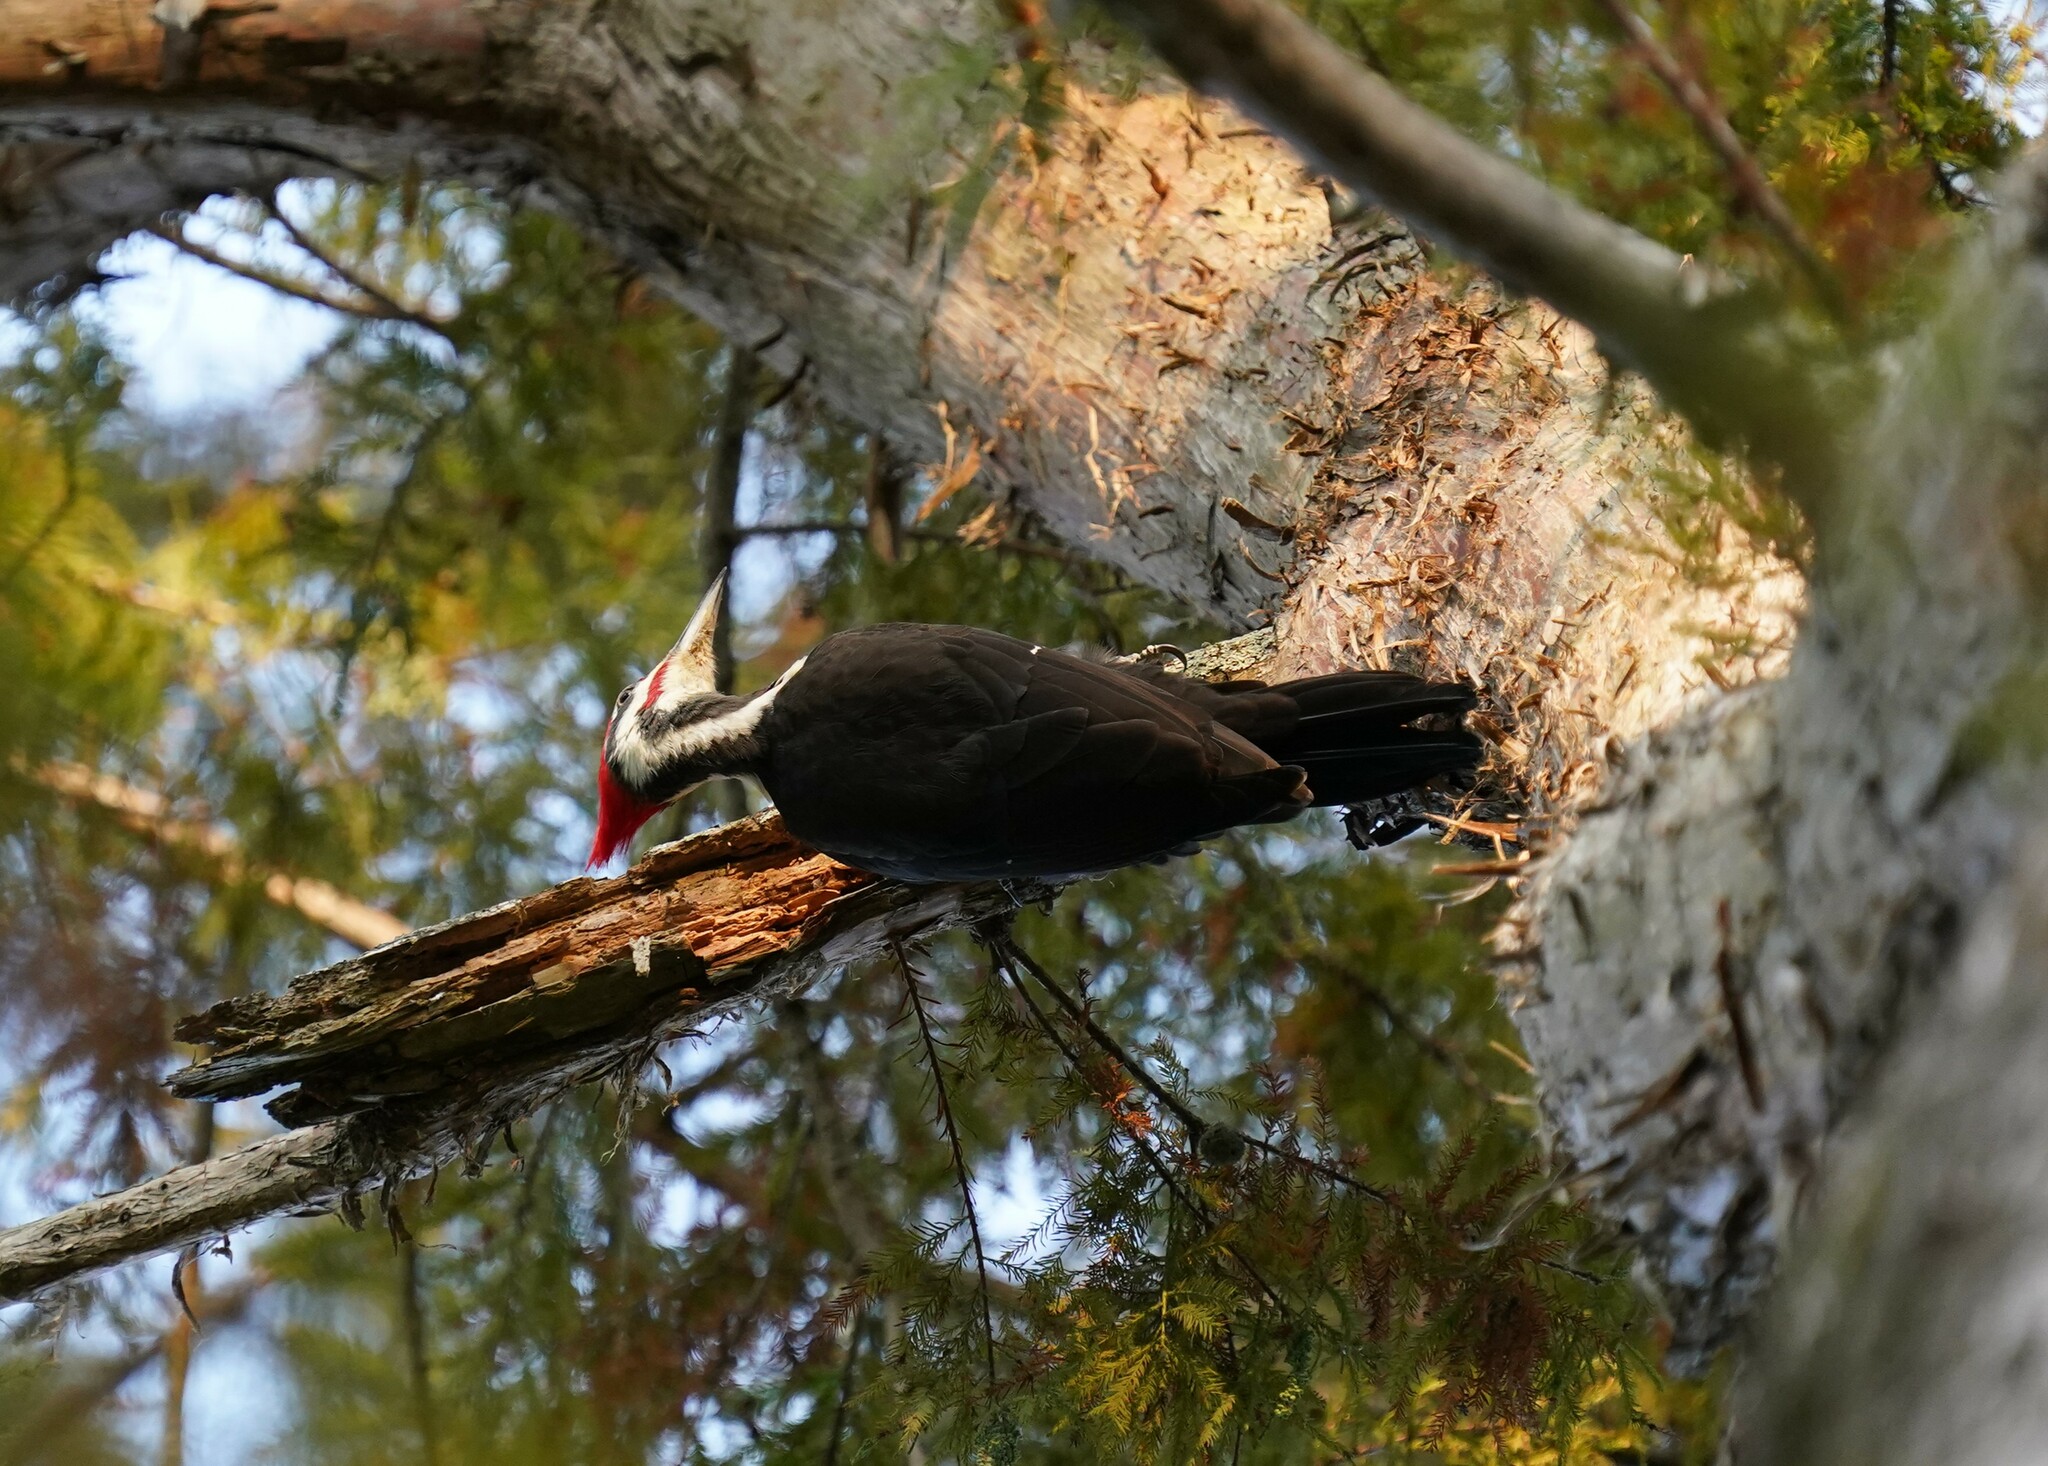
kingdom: Animalia
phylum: Chordata
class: Aves
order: Piciformes
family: Picidae
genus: Dryocopus
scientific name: Dryocopus pileatus
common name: Pileated woodpecker
